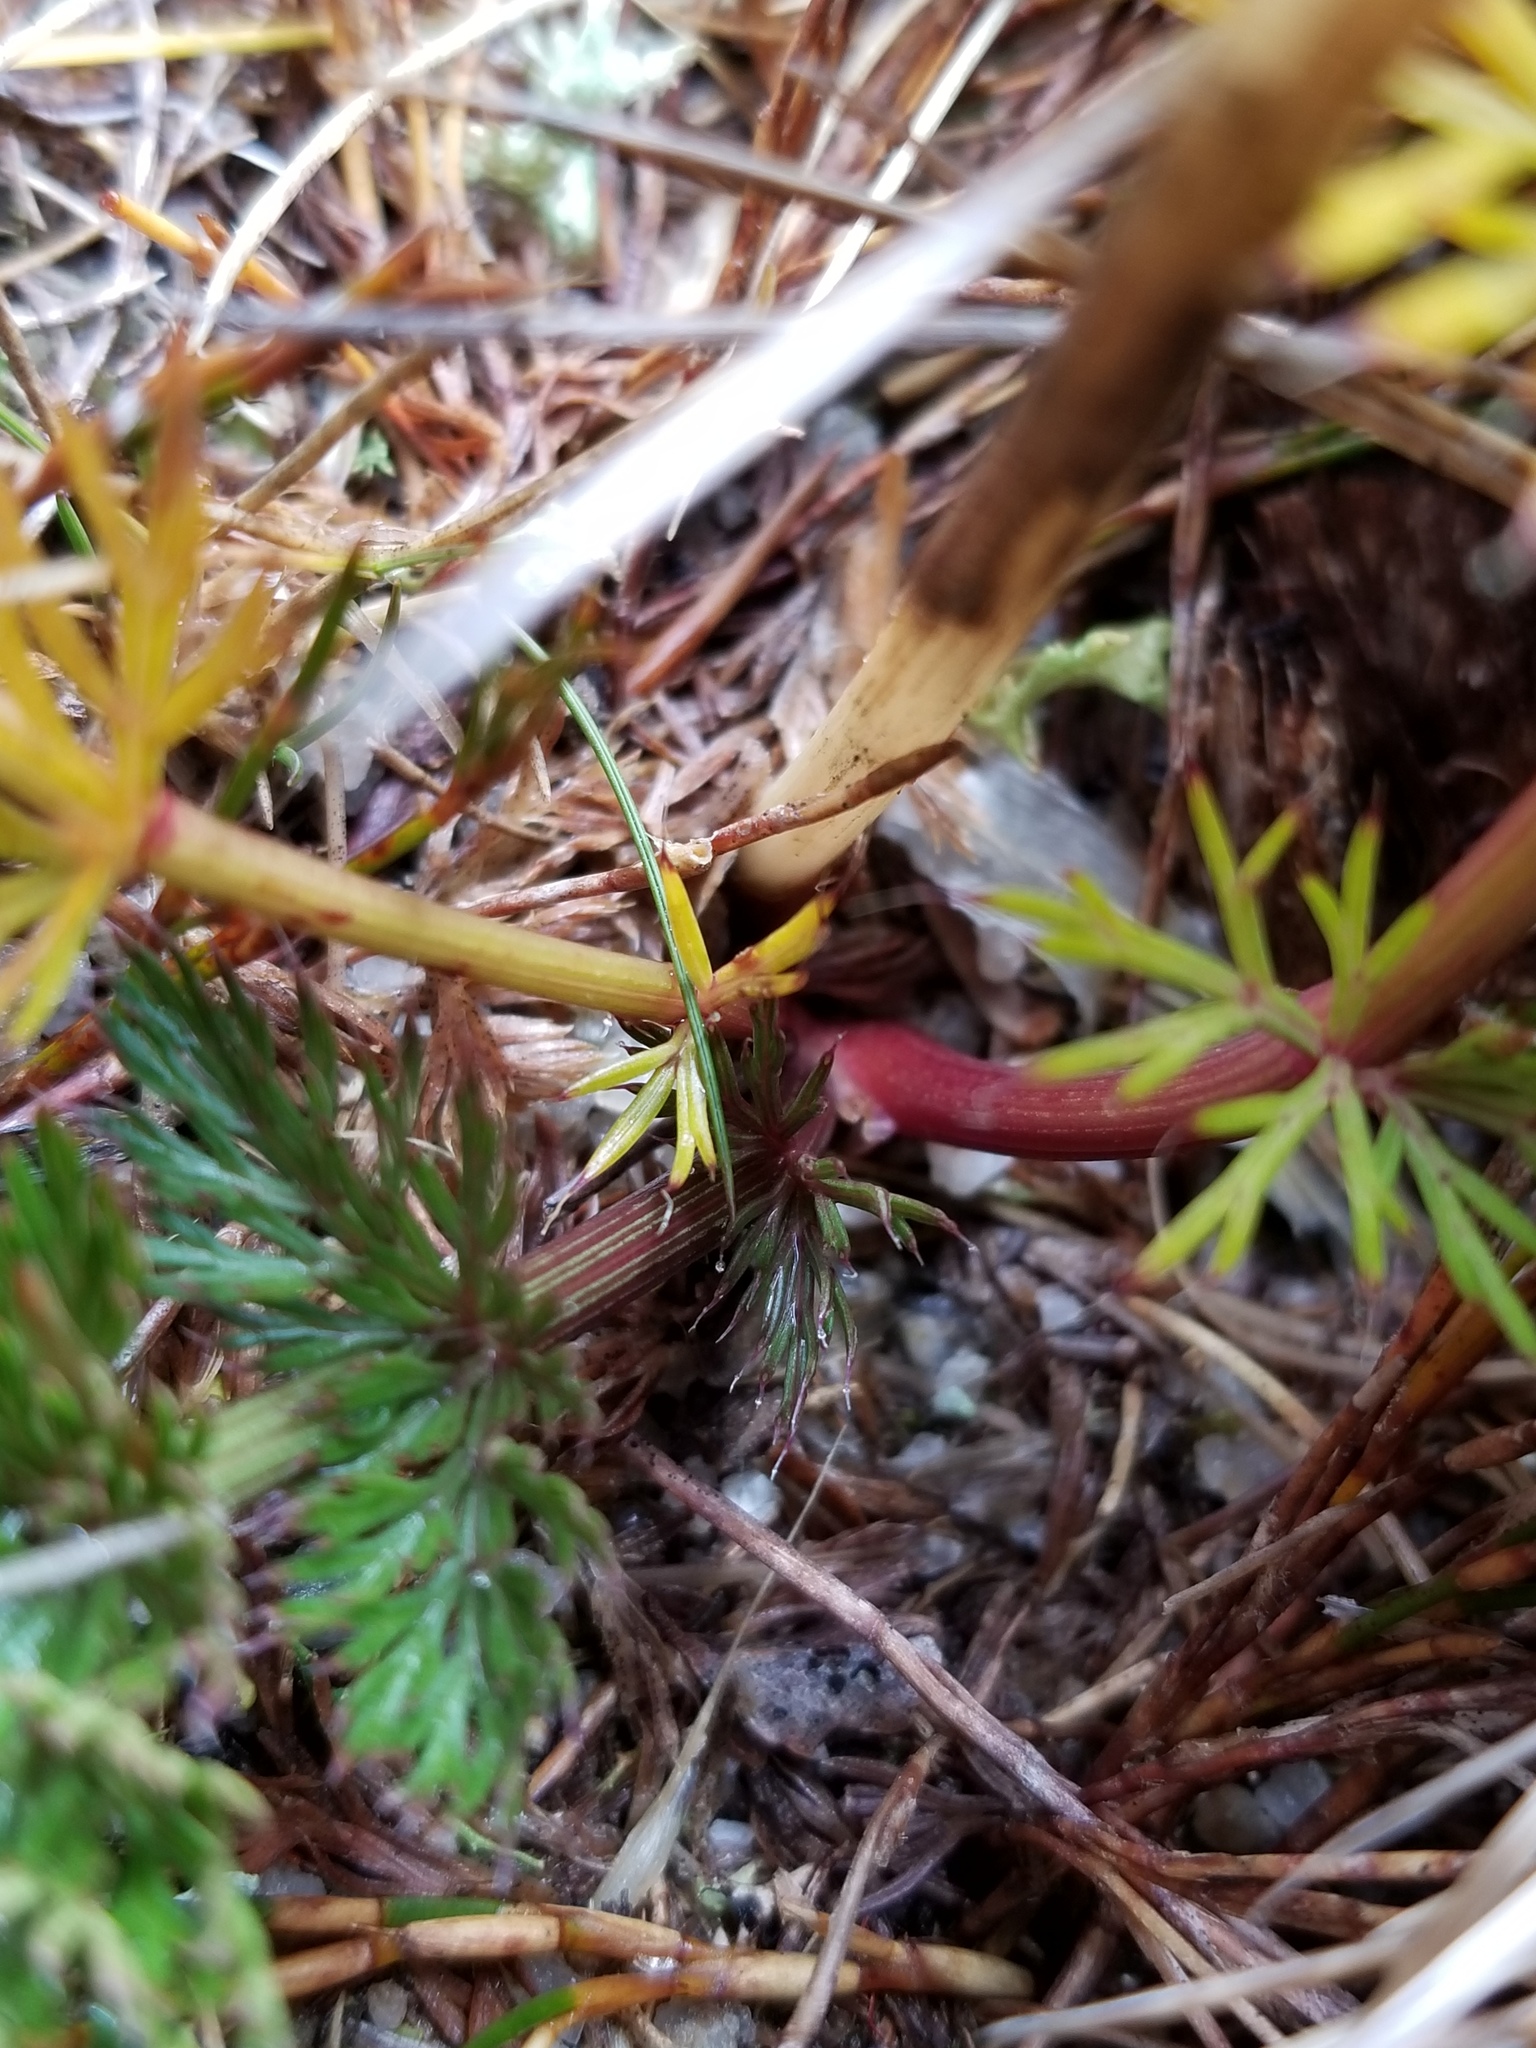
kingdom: Plantae
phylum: Tracheophyta
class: Magnoliopsida
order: Apiales
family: Apiaceae
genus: Anisotome
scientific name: Anisotome haastii
